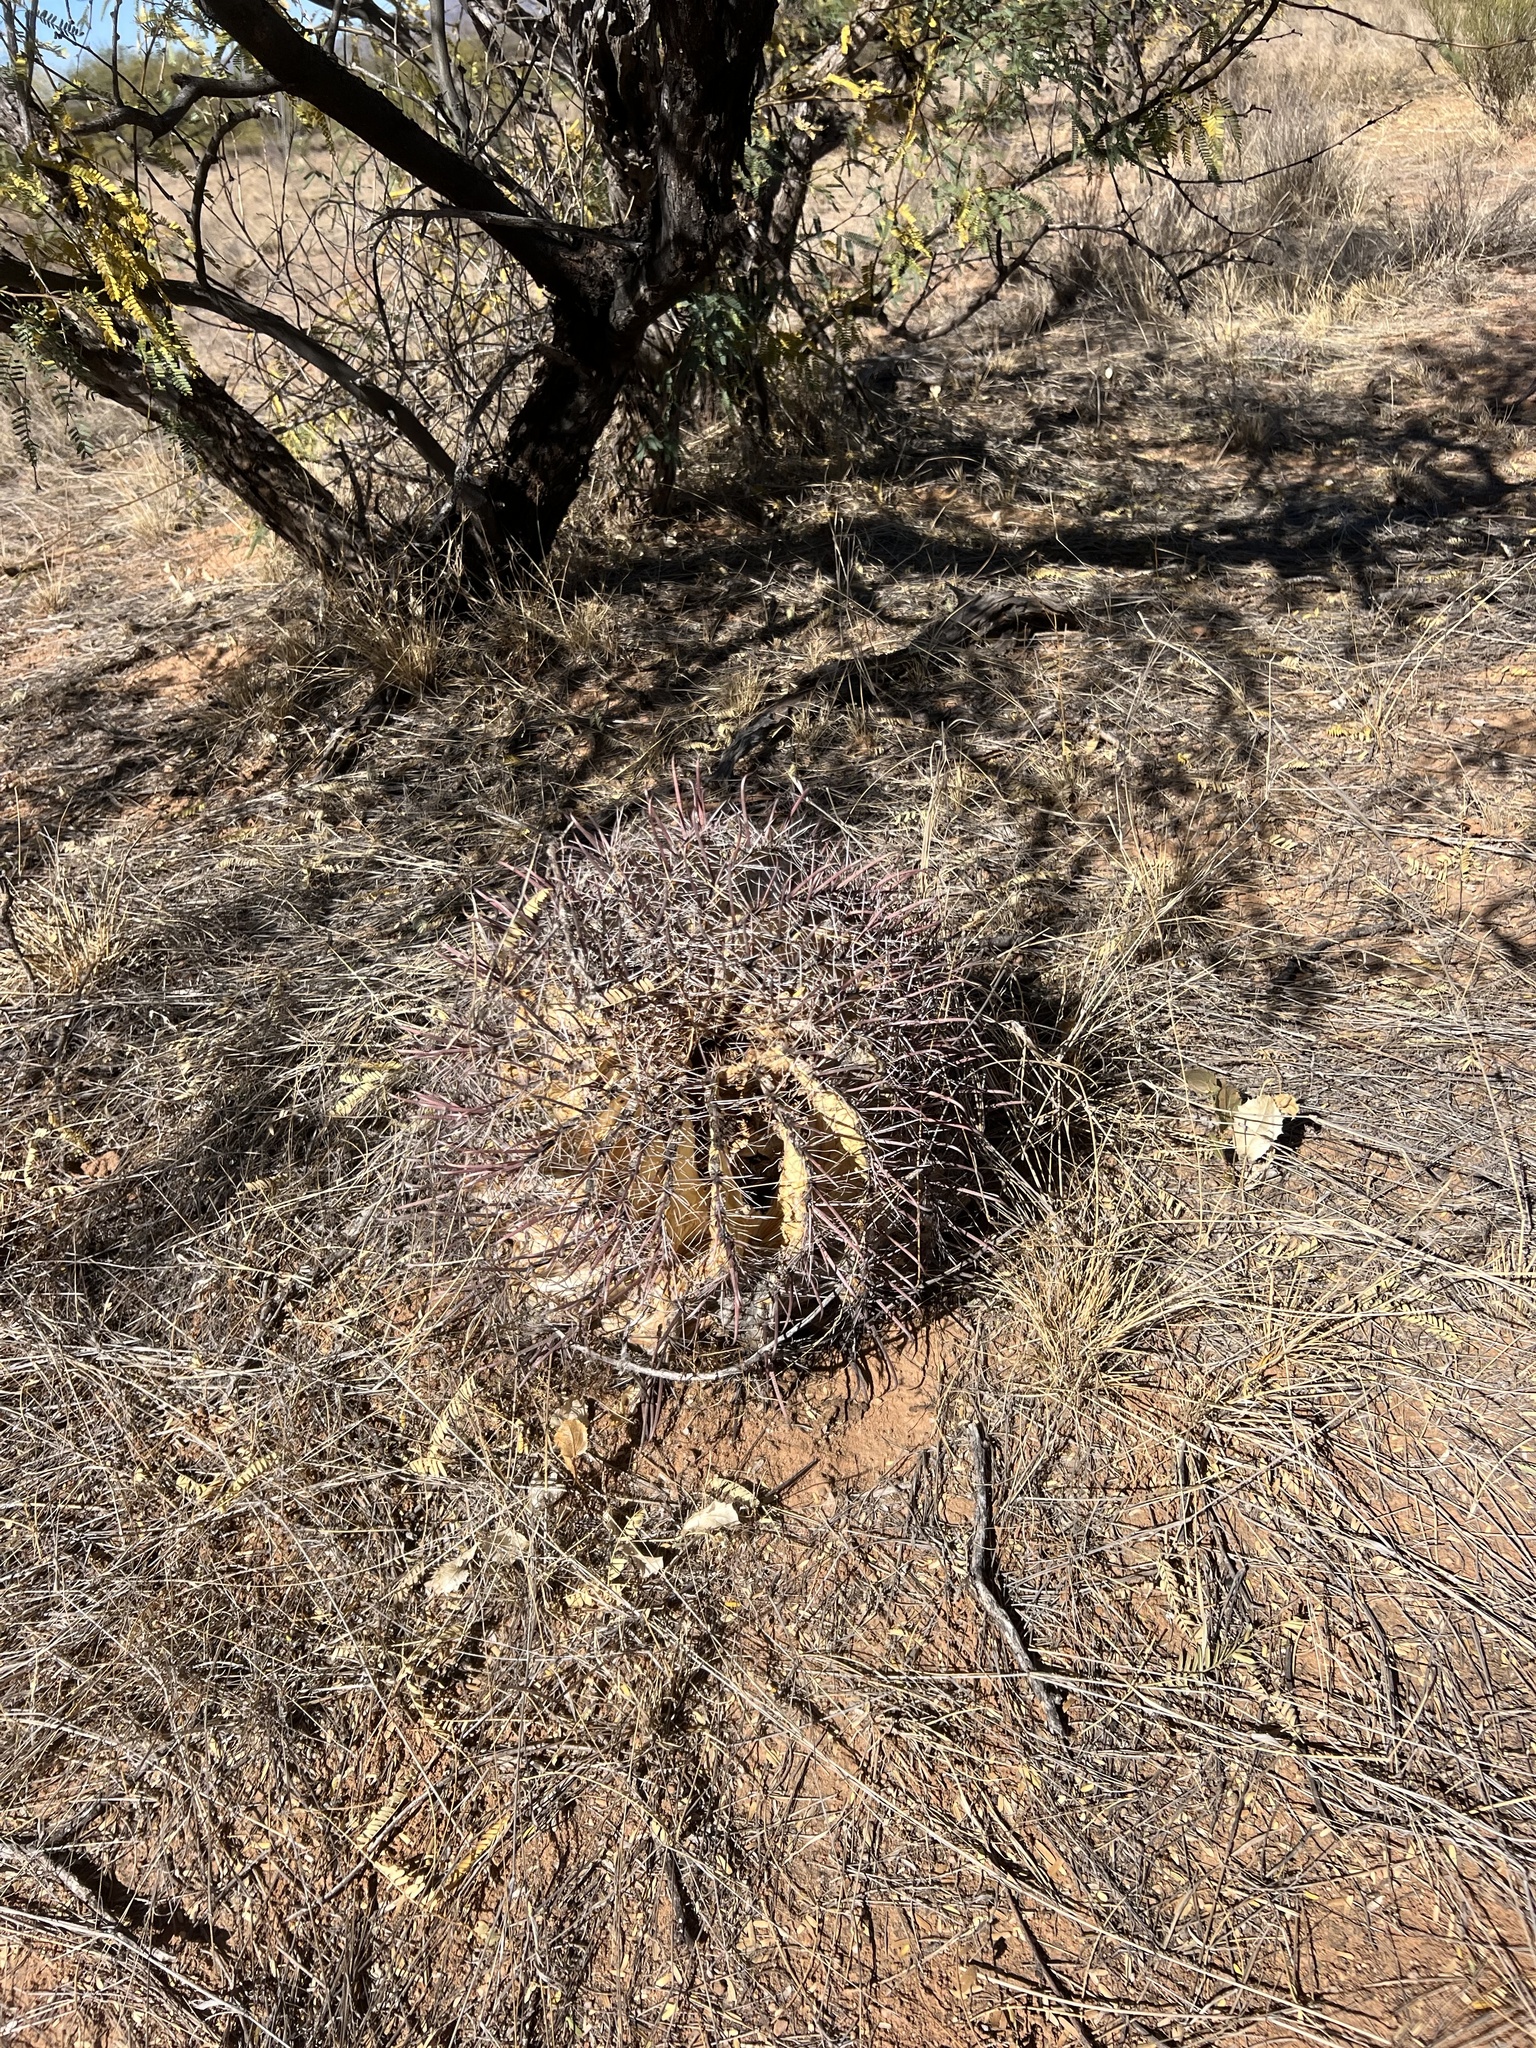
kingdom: Plantae
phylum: Tracheophyta
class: Magnoliopsida
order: Caryophyllales
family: Cactaceae
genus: Ferocactus
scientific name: Ferocactus wislizeni
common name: Candy barrel cactus
